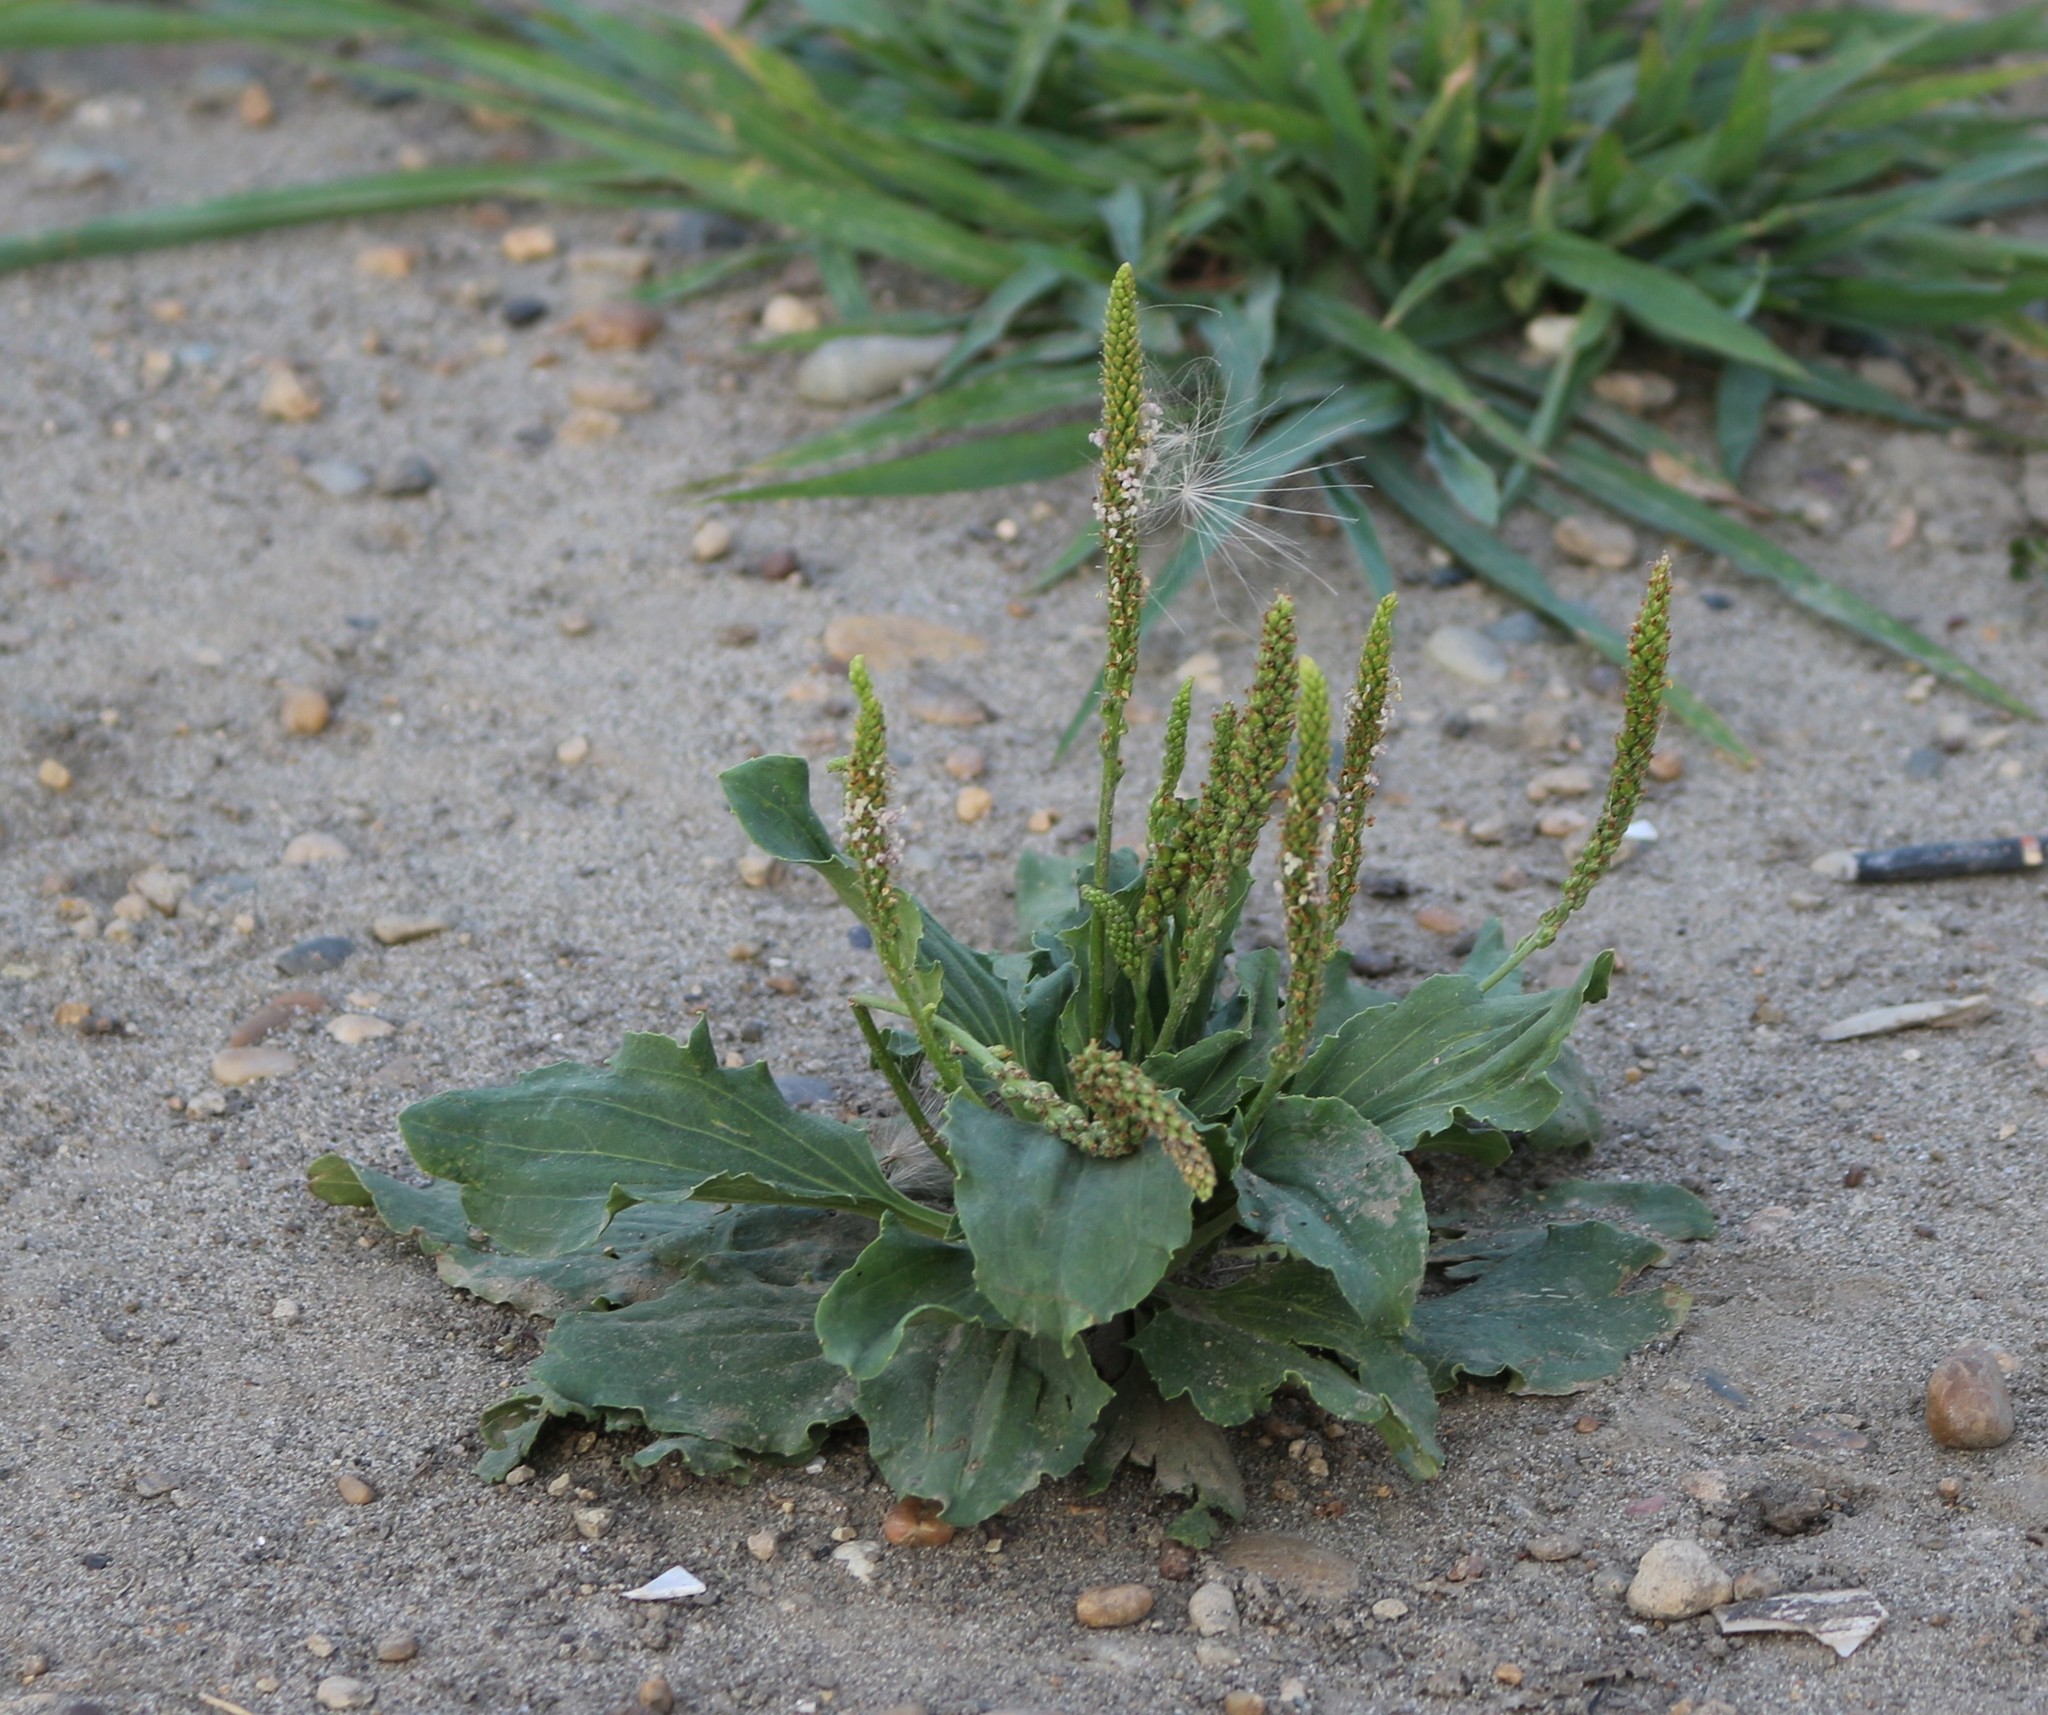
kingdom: Plantae
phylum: Tracheophyta
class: Magnoliopsida
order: Lamiales
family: Plantaginaceae
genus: Plantago
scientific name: Plantago major
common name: Common plantain
